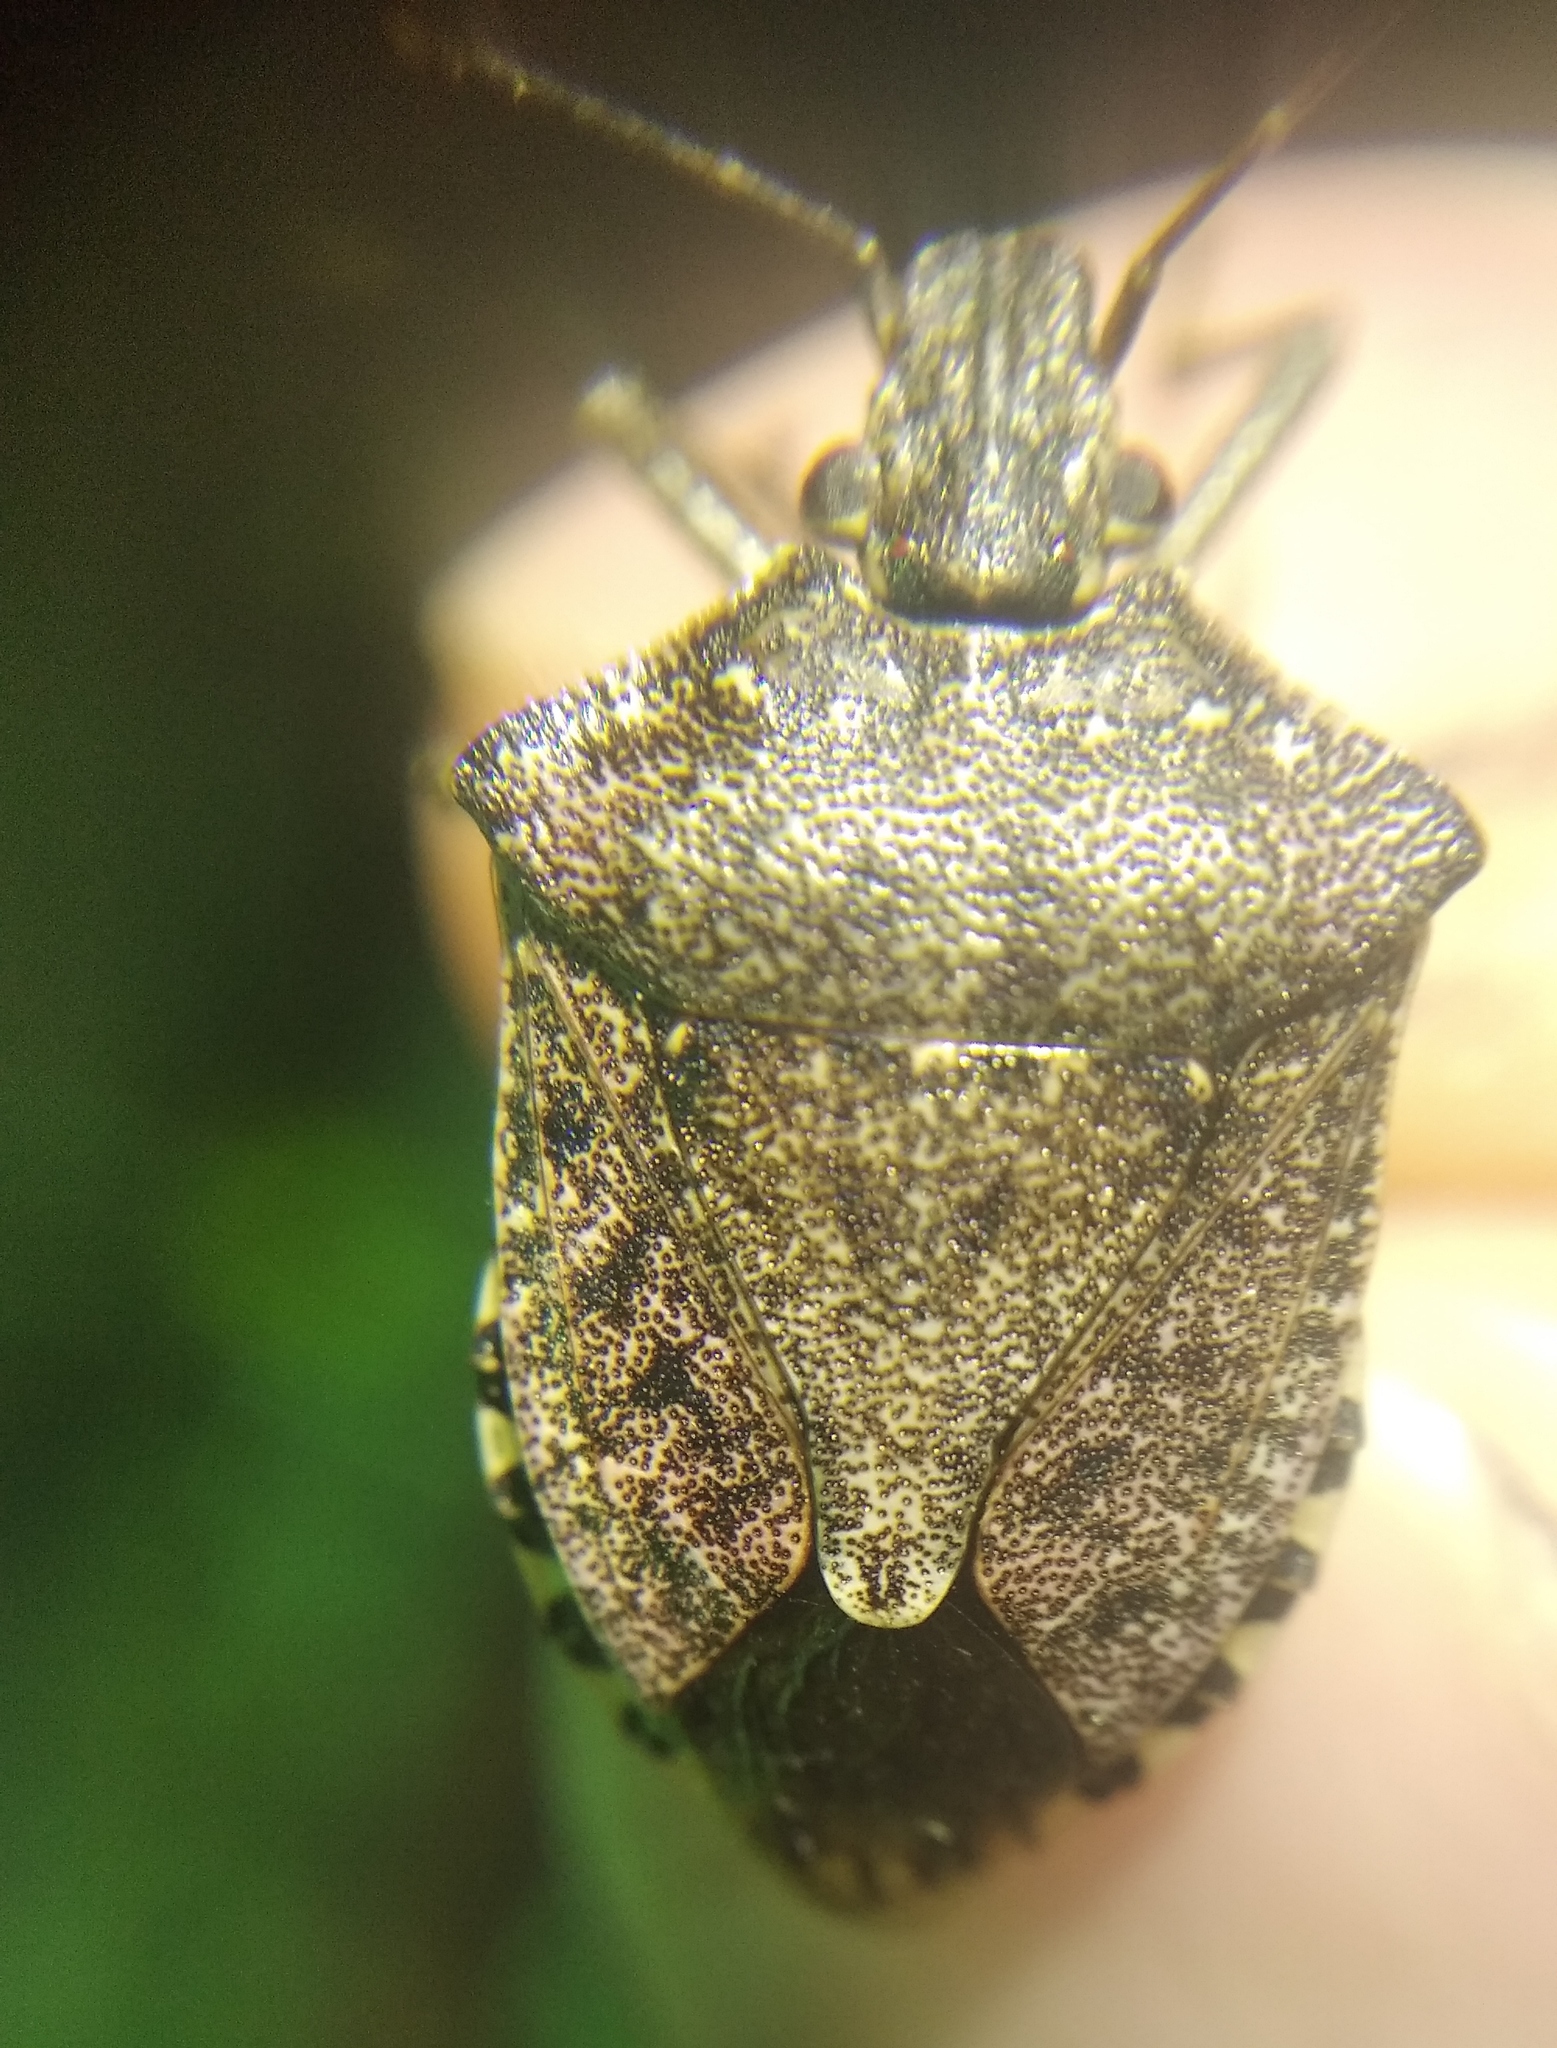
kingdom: Animalia
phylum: Arthropoda
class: Insecta
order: Hemiptera
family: Pentatomidae
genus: Halyomorpha
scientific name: Halyomorpha halys
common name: Brown marmorated stink bug
